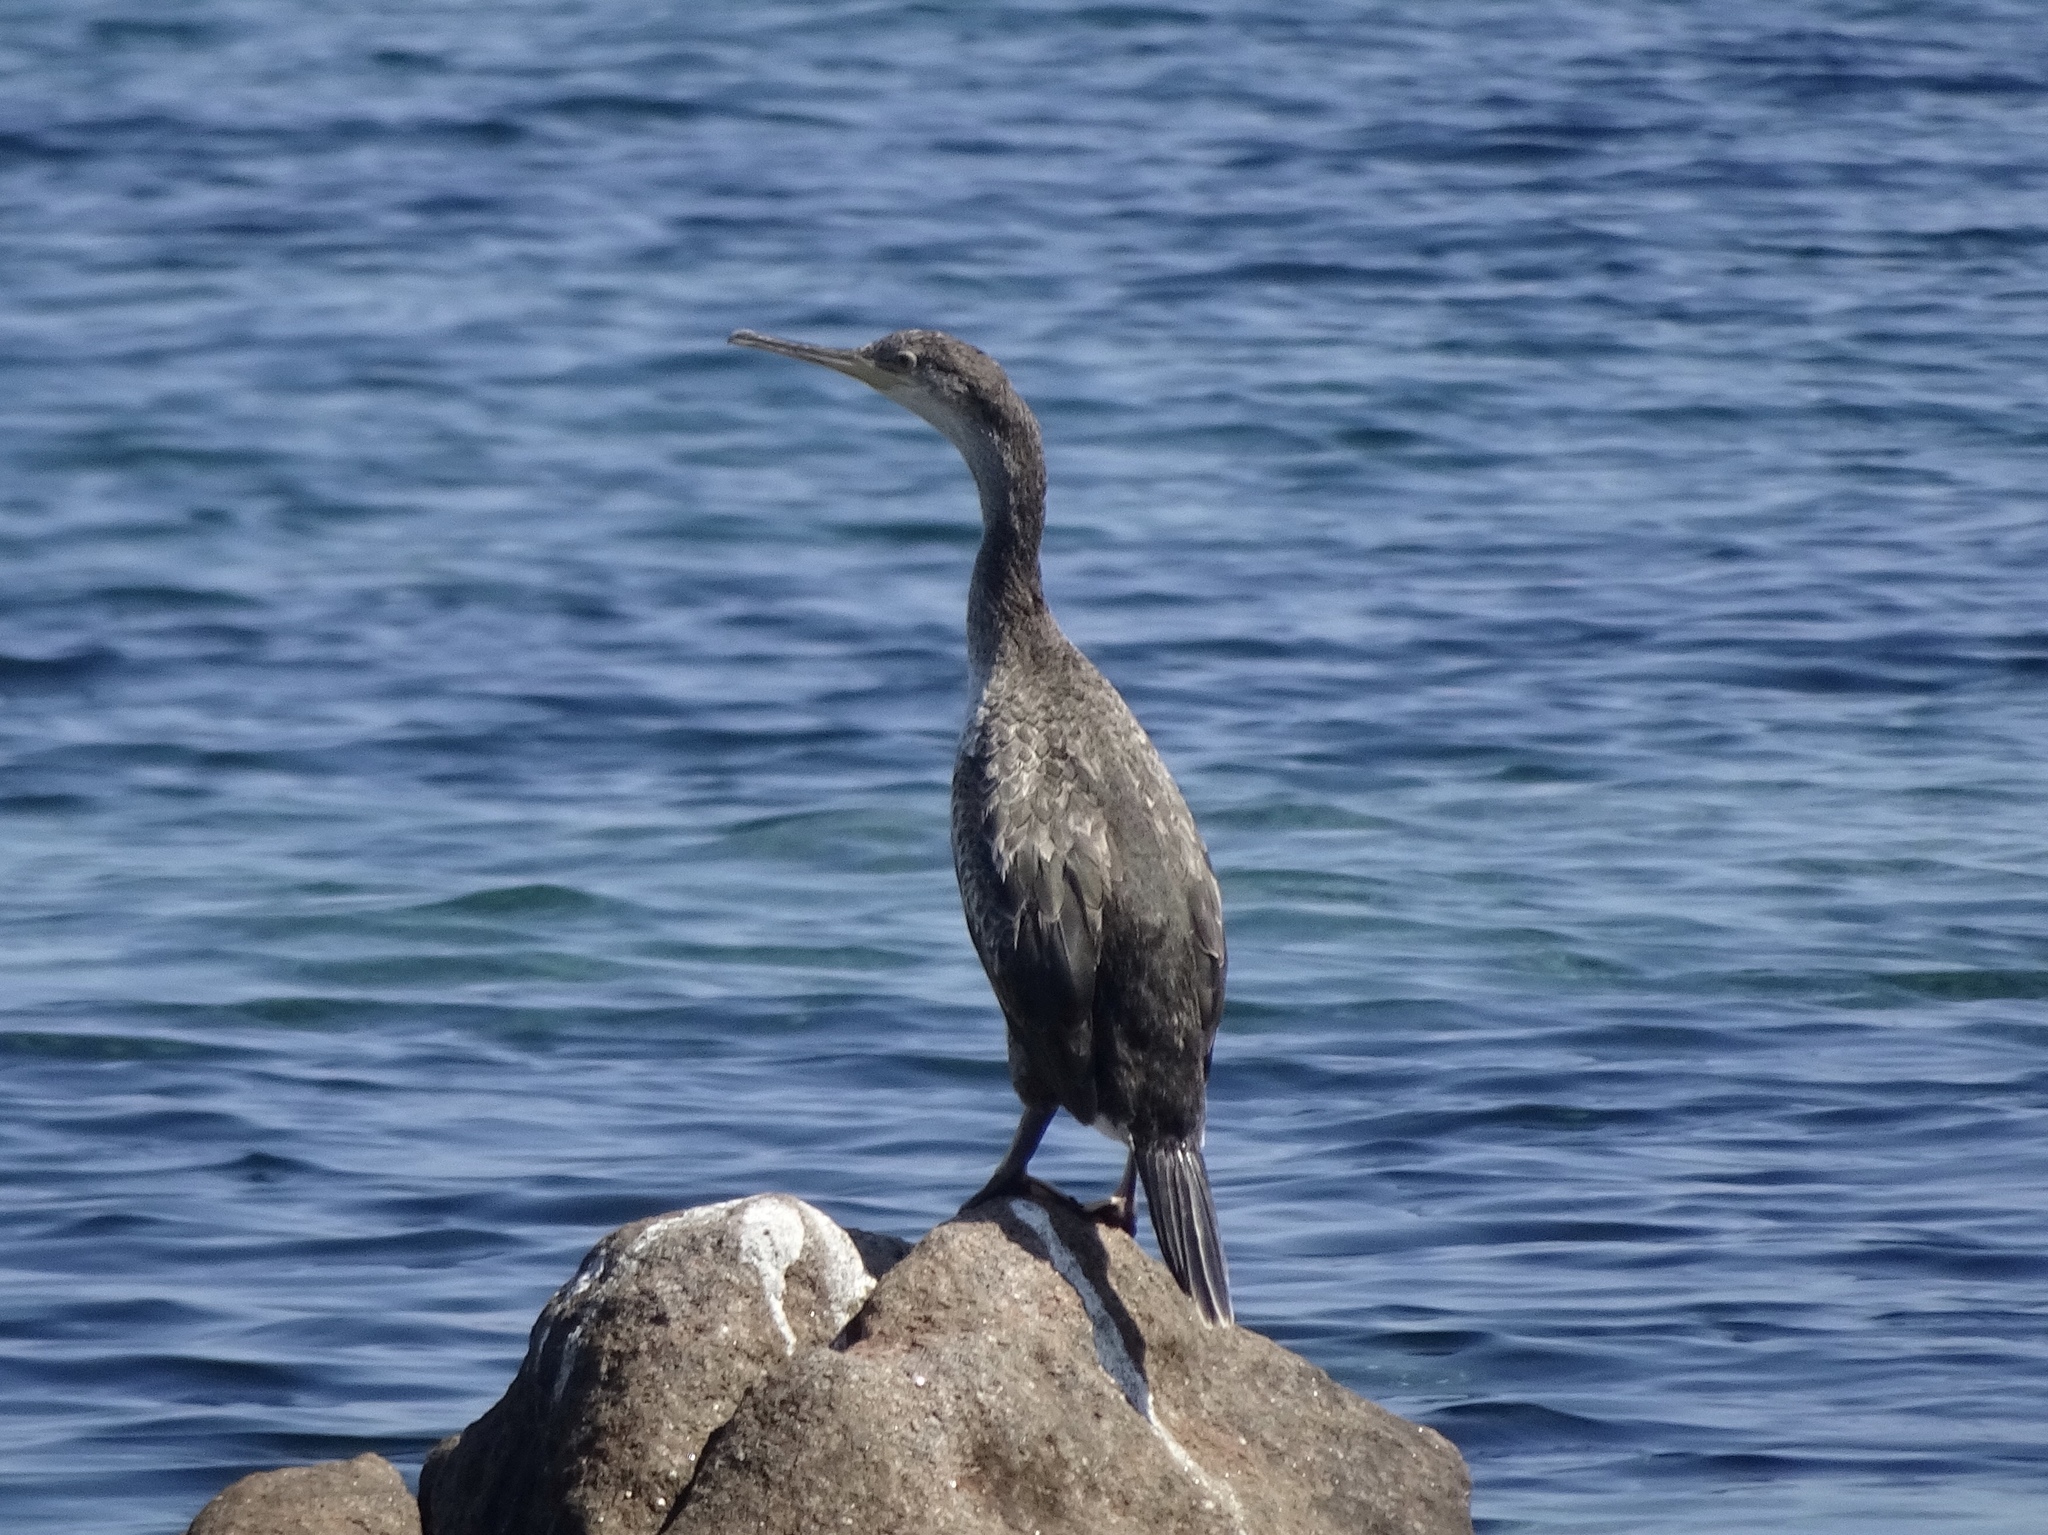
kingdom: Animalia
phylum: Chordata
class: Aves
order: Suliformes
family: Phalacrocoracidae
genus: Phalacrocorax
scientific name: Phalacrocorax aristotelis
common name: European shag
